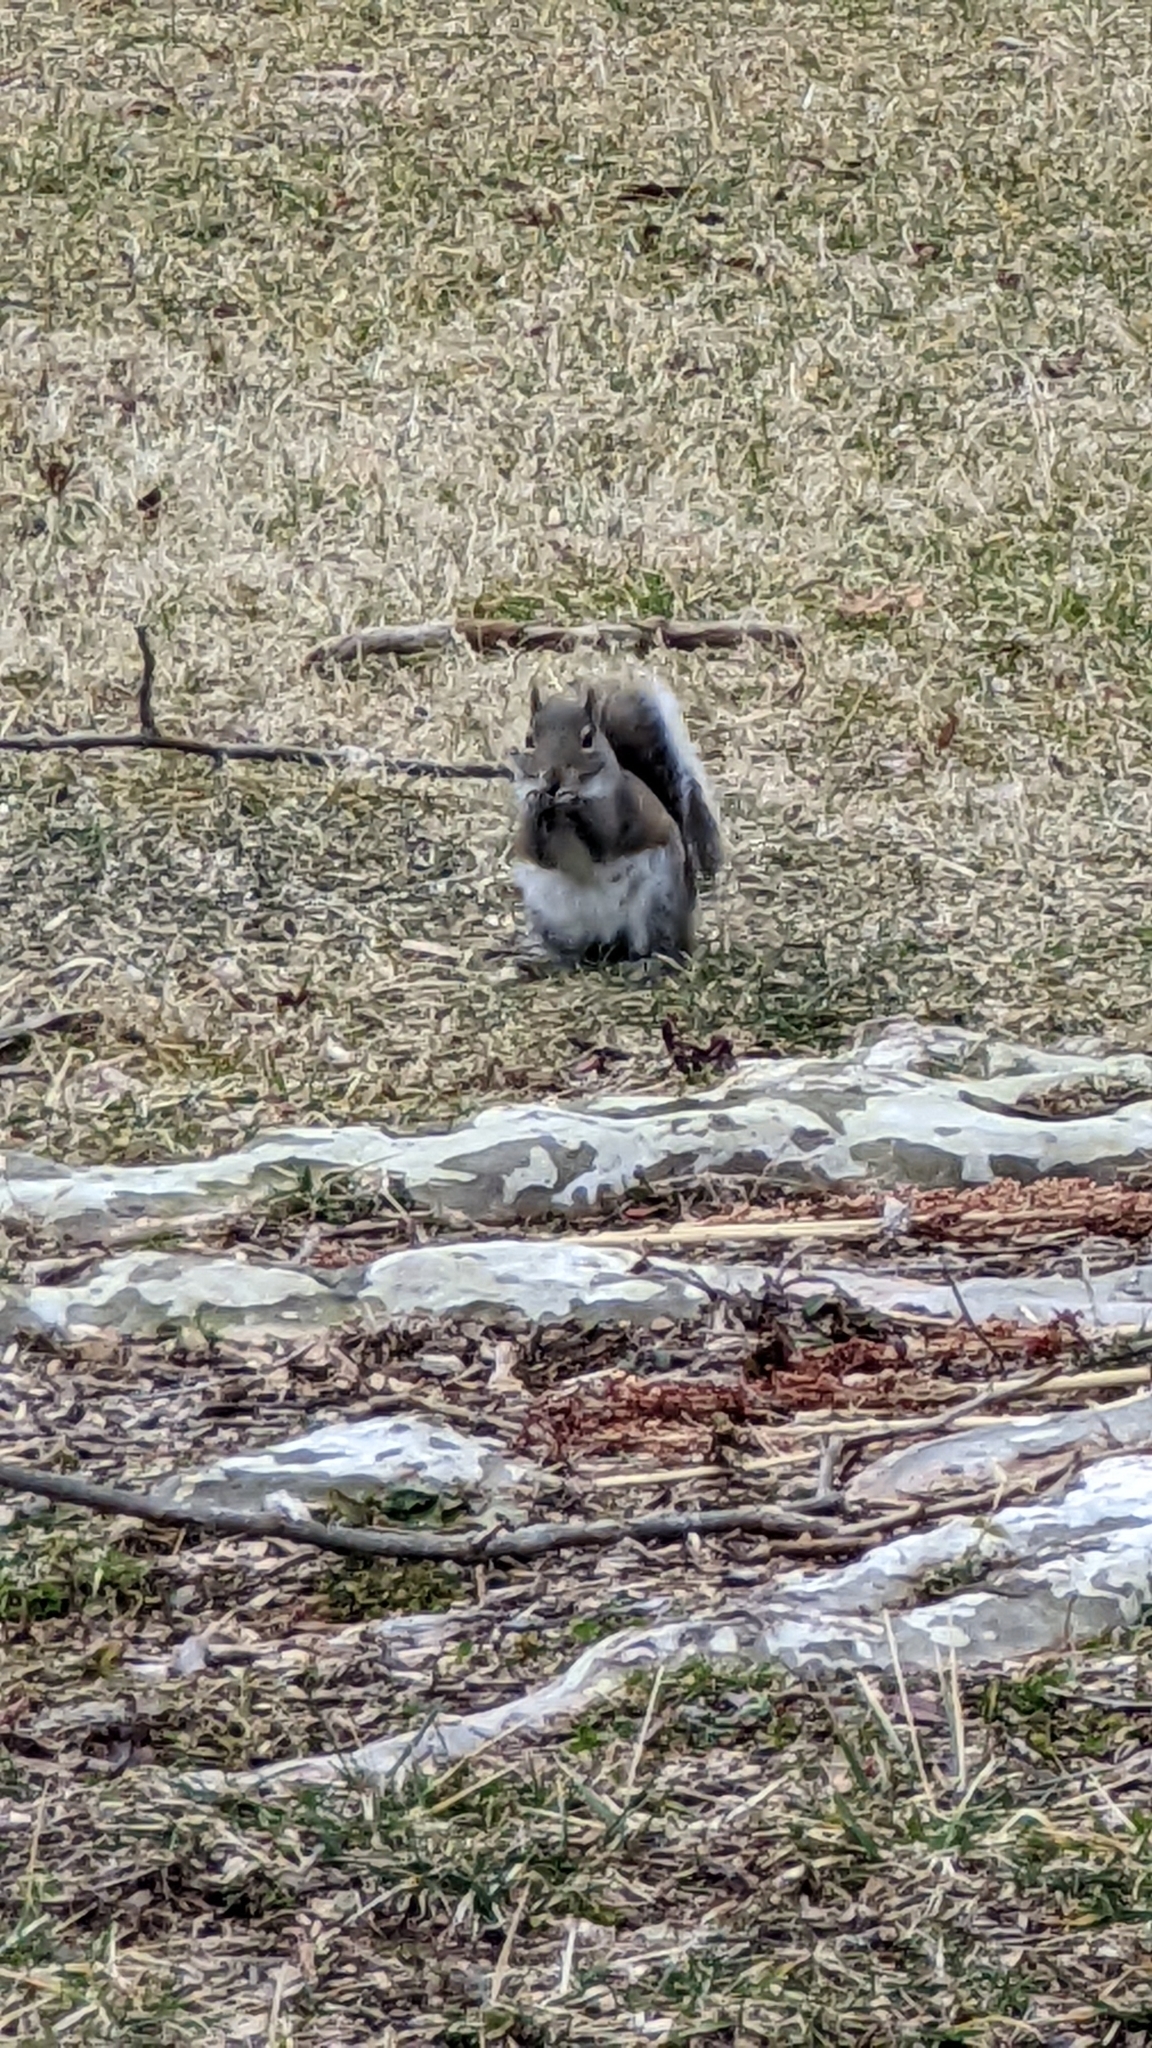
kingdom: Animalia
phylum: Chordata
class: Mammalia
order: Rodentia
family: Sciuridae
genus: Sciurus
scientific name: Sciurus carolinensis
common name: Eastern gray squirrel
